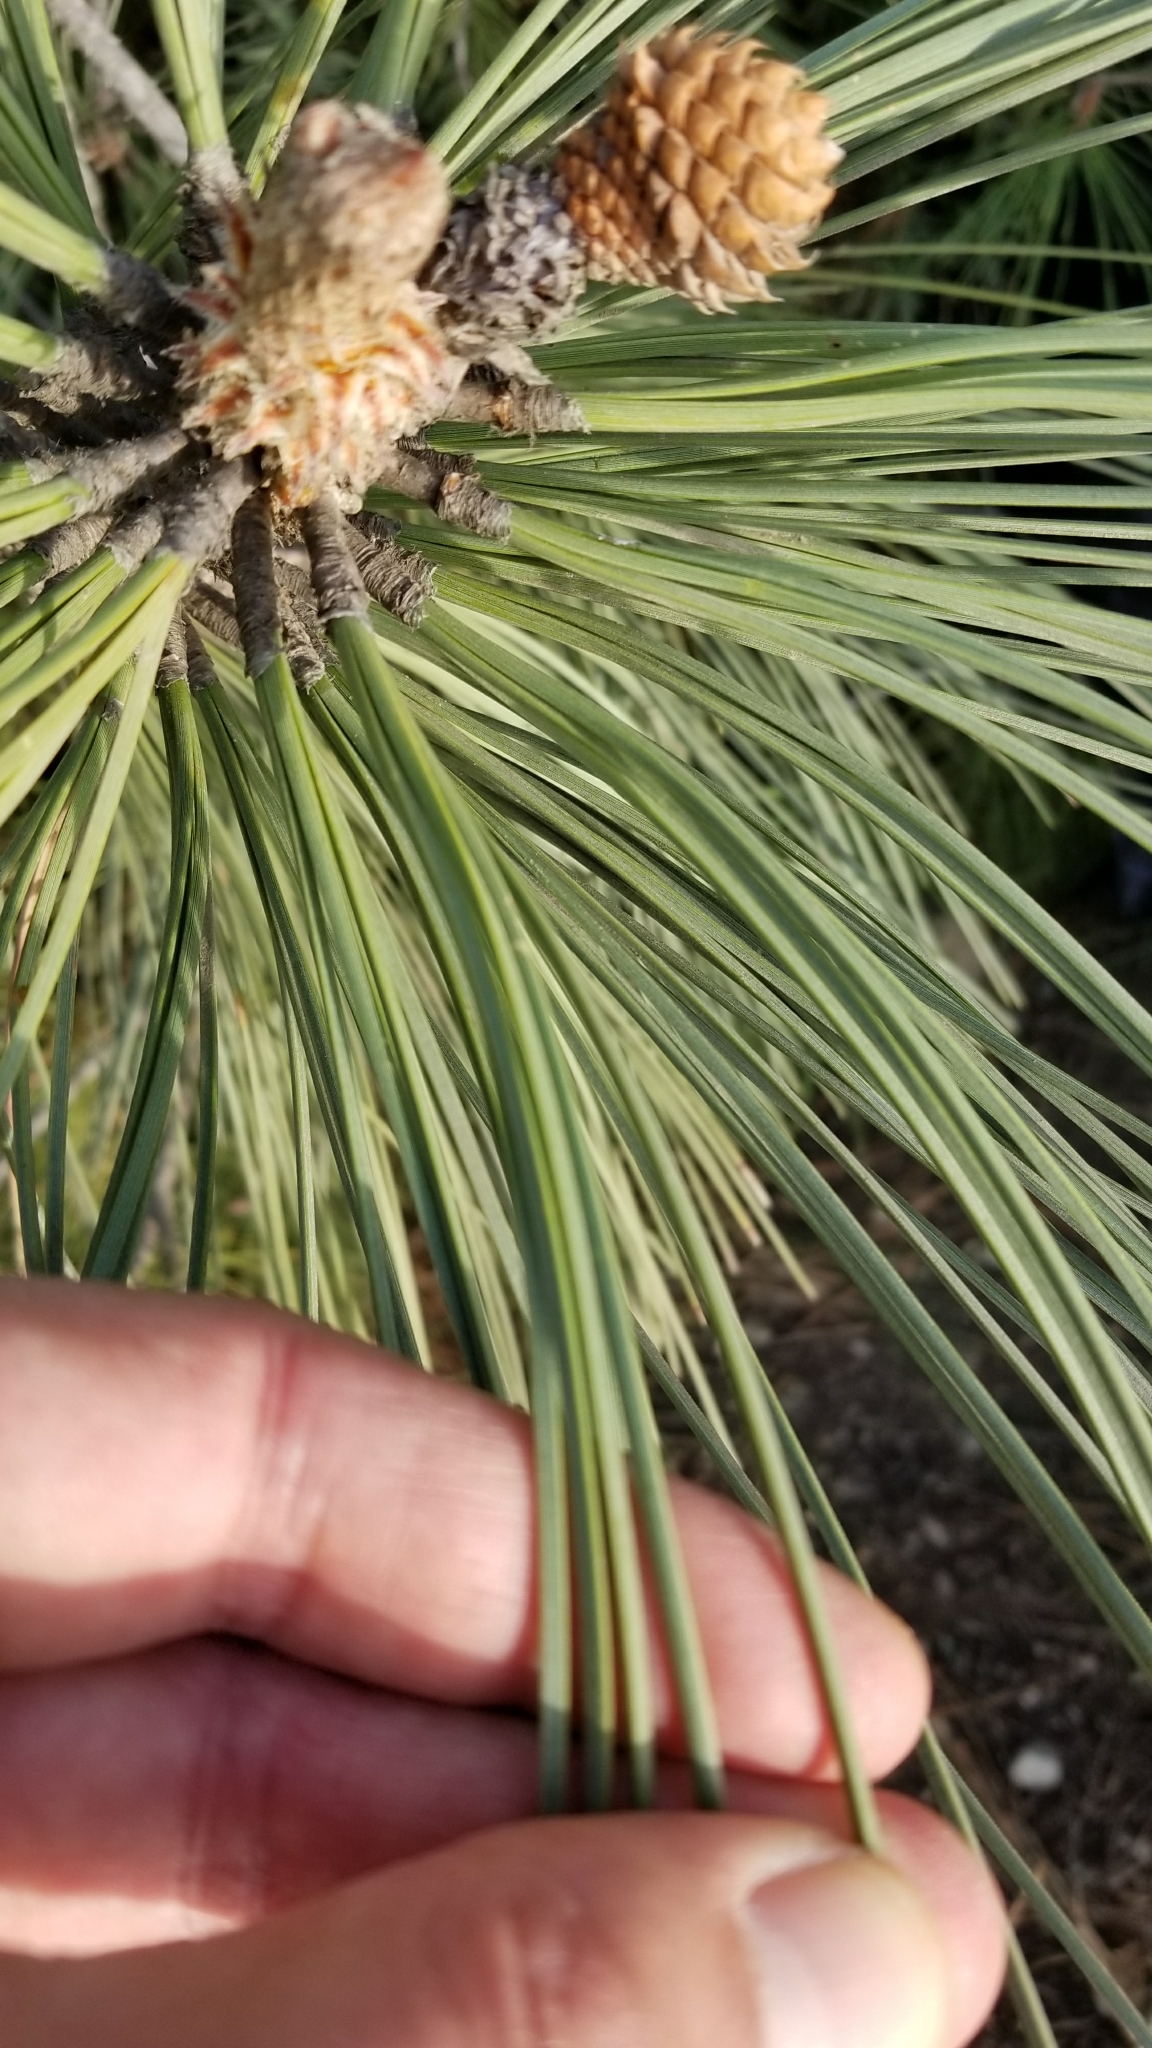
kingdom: Plantae
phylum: Tracheophyta
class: Pinopsida
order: Pinales
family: Pinaceae
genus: Pinus
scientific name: Pinus halepensis
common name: Aleppo pine
